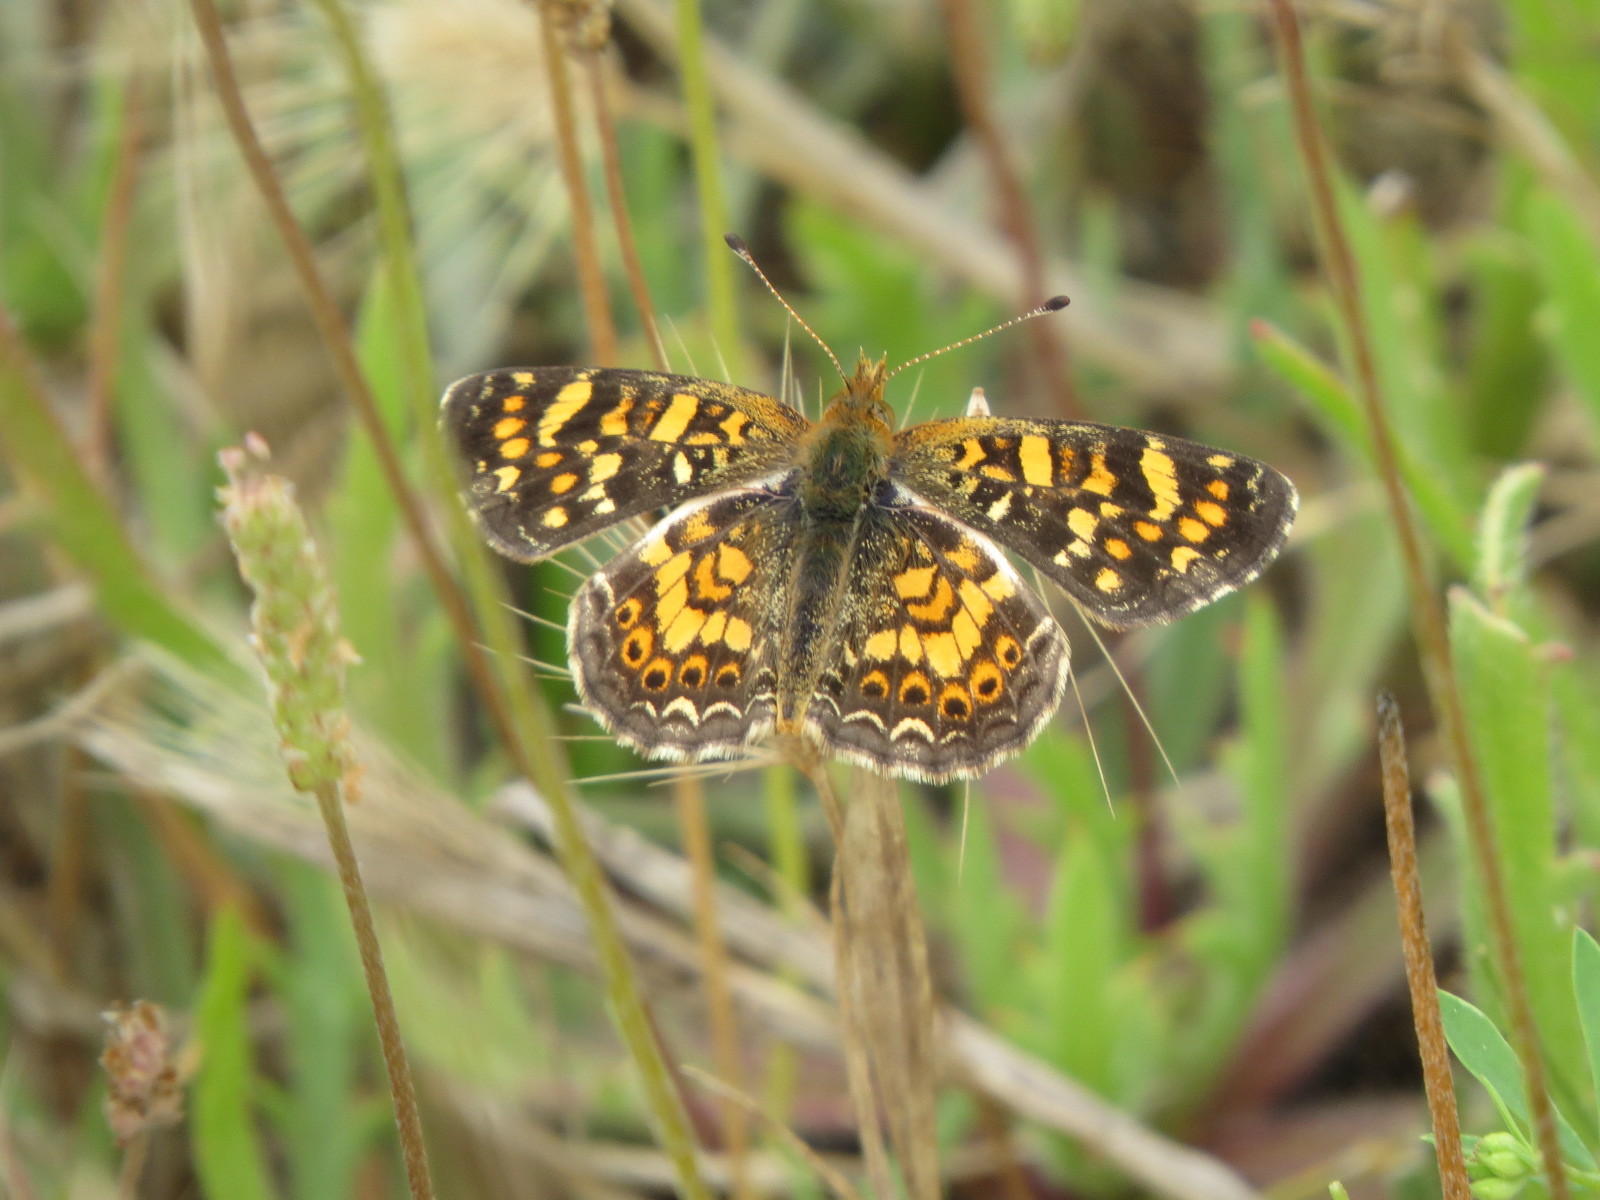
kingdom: Animalia
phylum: Arthropoda
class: Insecta
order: Lepidoptera
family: Nymphalidae
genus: Phyciodes
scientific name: Phyciodes tharos
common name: Pearl crescent
